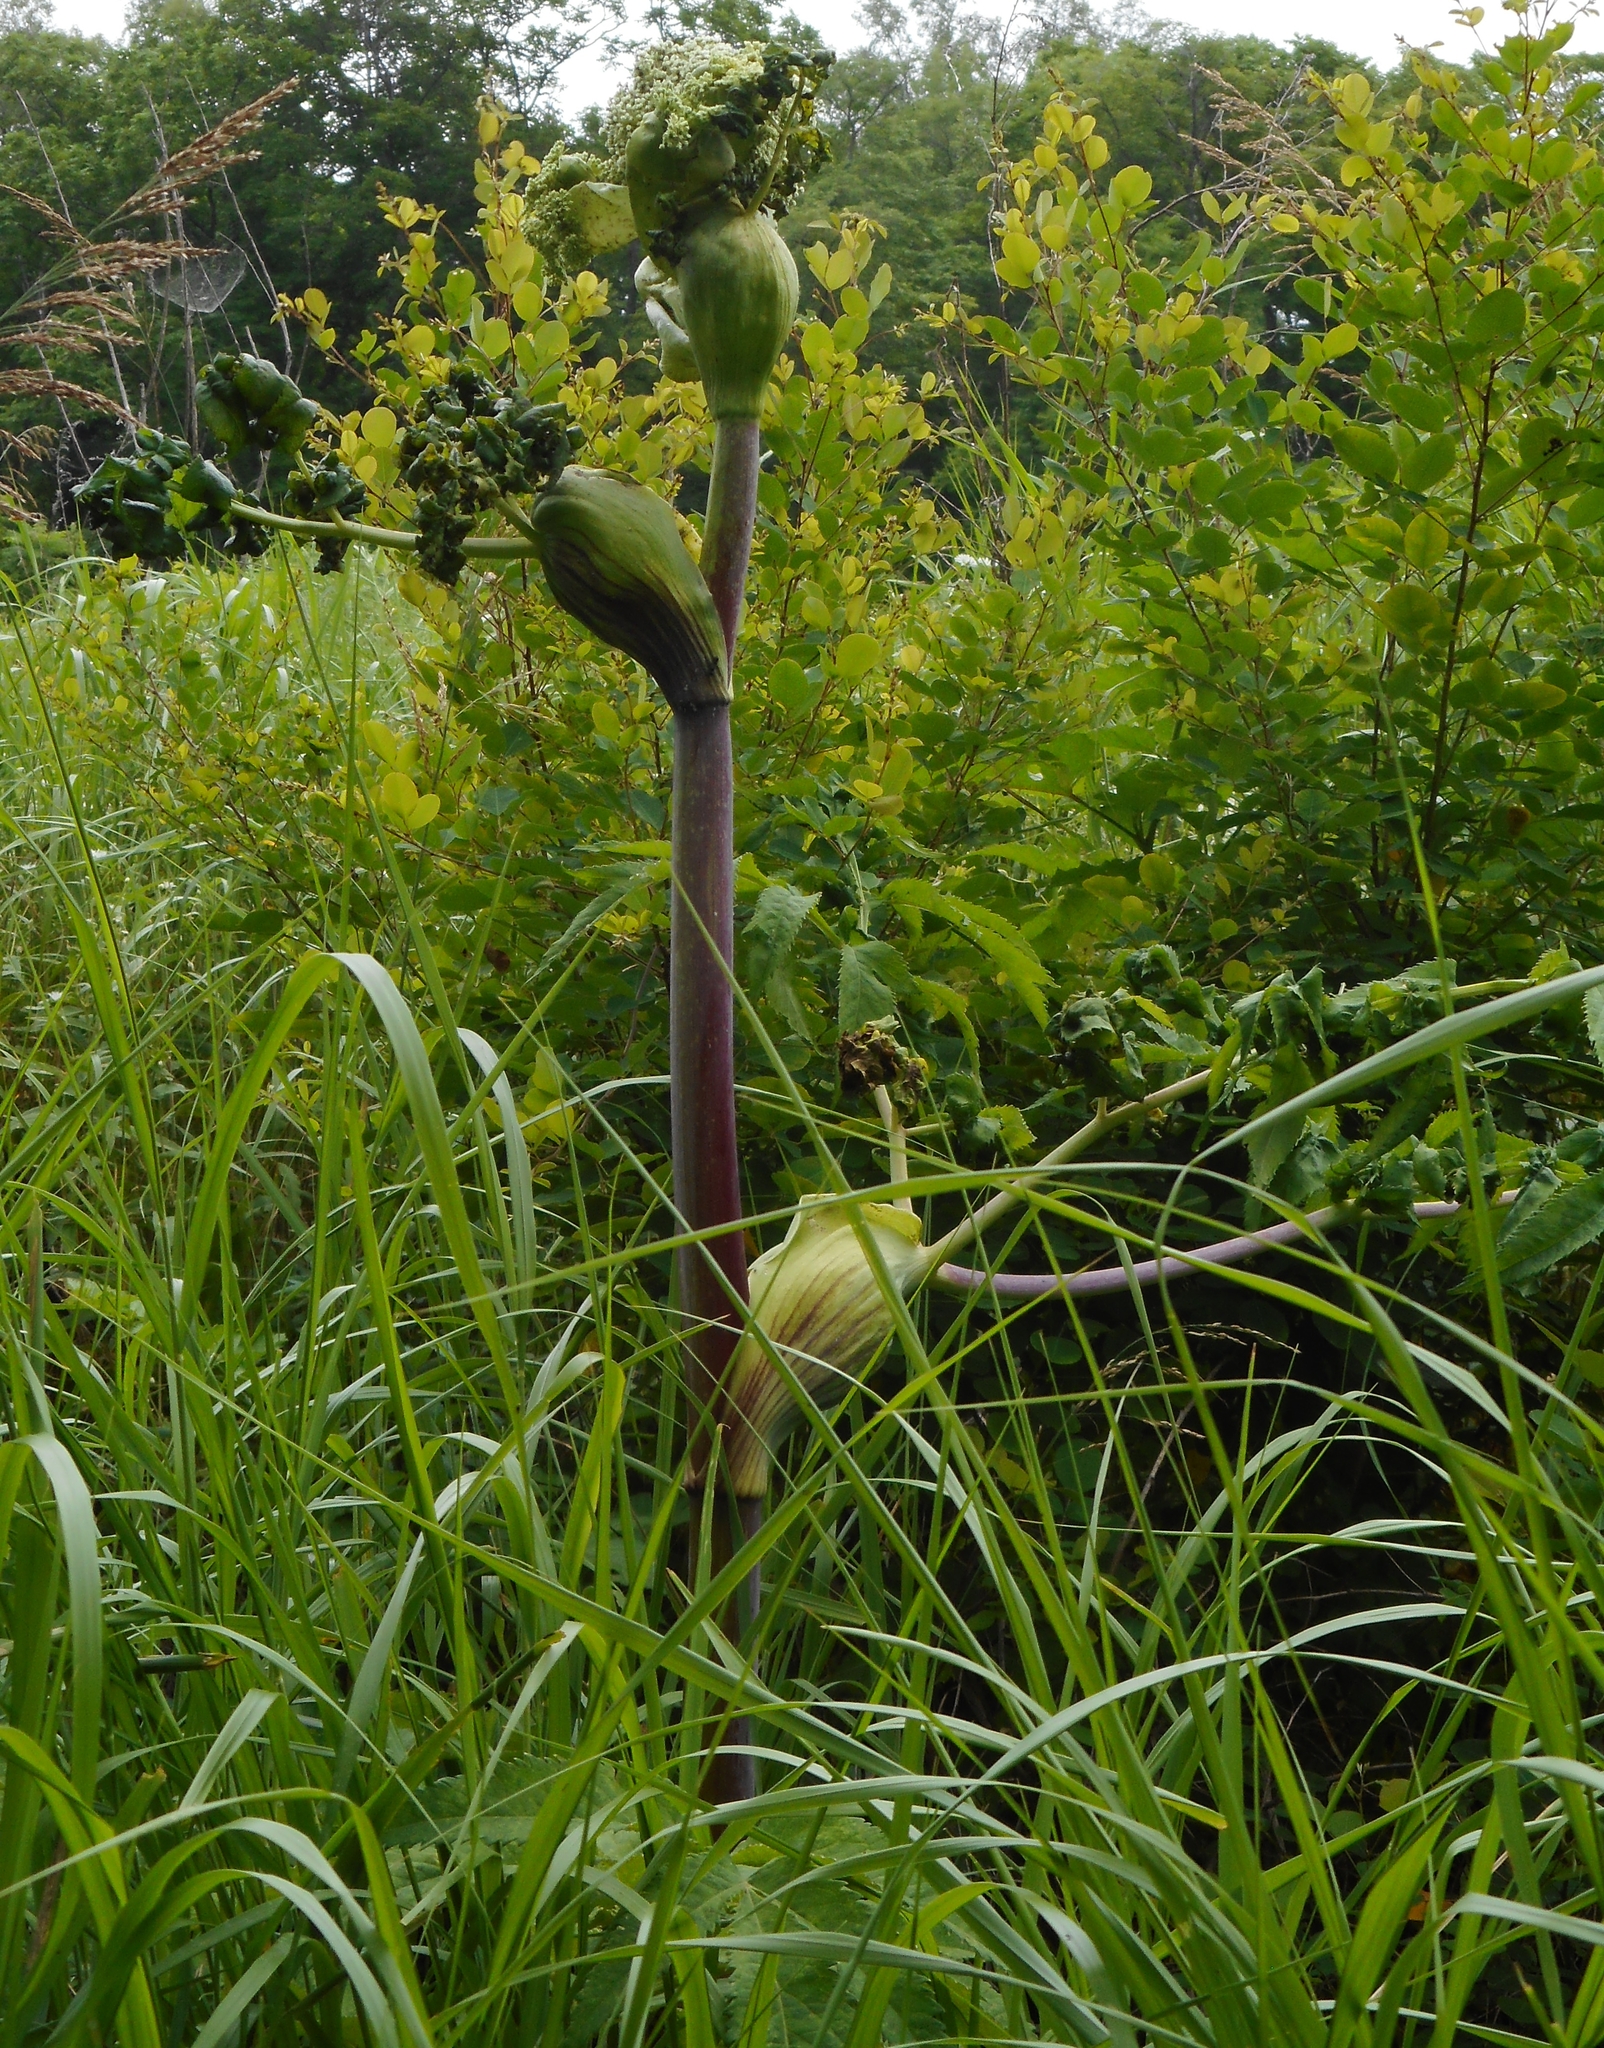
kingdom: Plantae
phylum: Tracheophyta
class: Magnoliopsida
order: Apiales
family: Apiaceae
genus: Angelica
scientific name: Angelica dahurica
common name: Dahurian angelica
